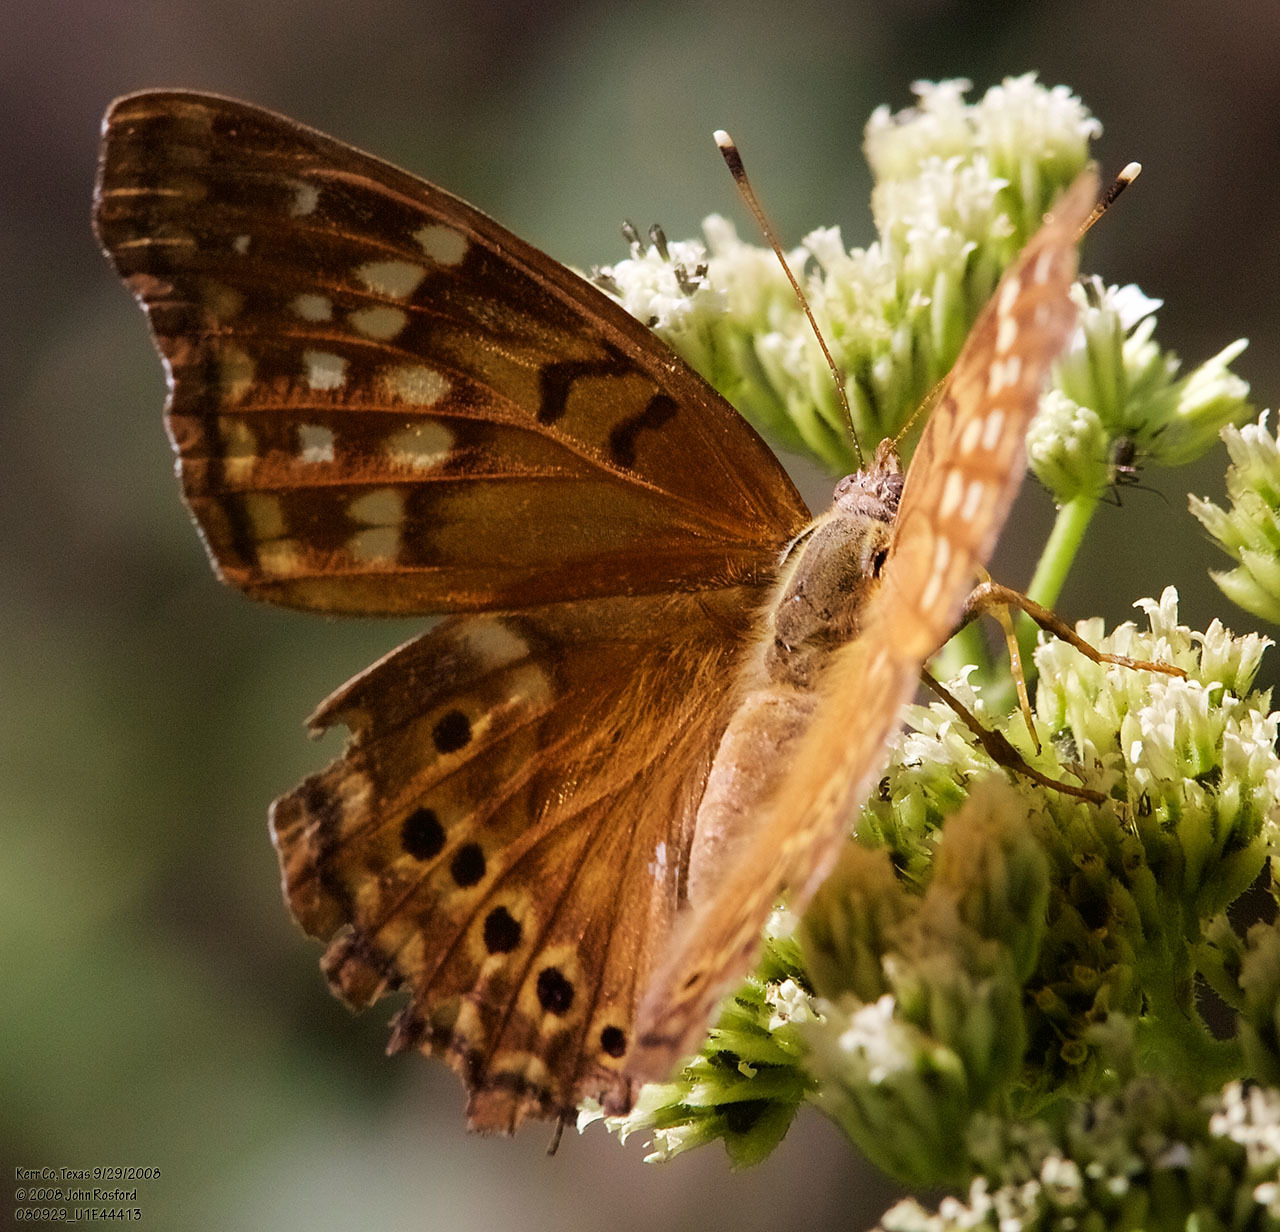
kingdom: Animalia
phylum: Arthropoda
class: Insecta
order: Lepidoptera
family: Nymphalidae
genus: Asterocampa
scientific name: Asterocampa clyton
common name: Tawny emperor
